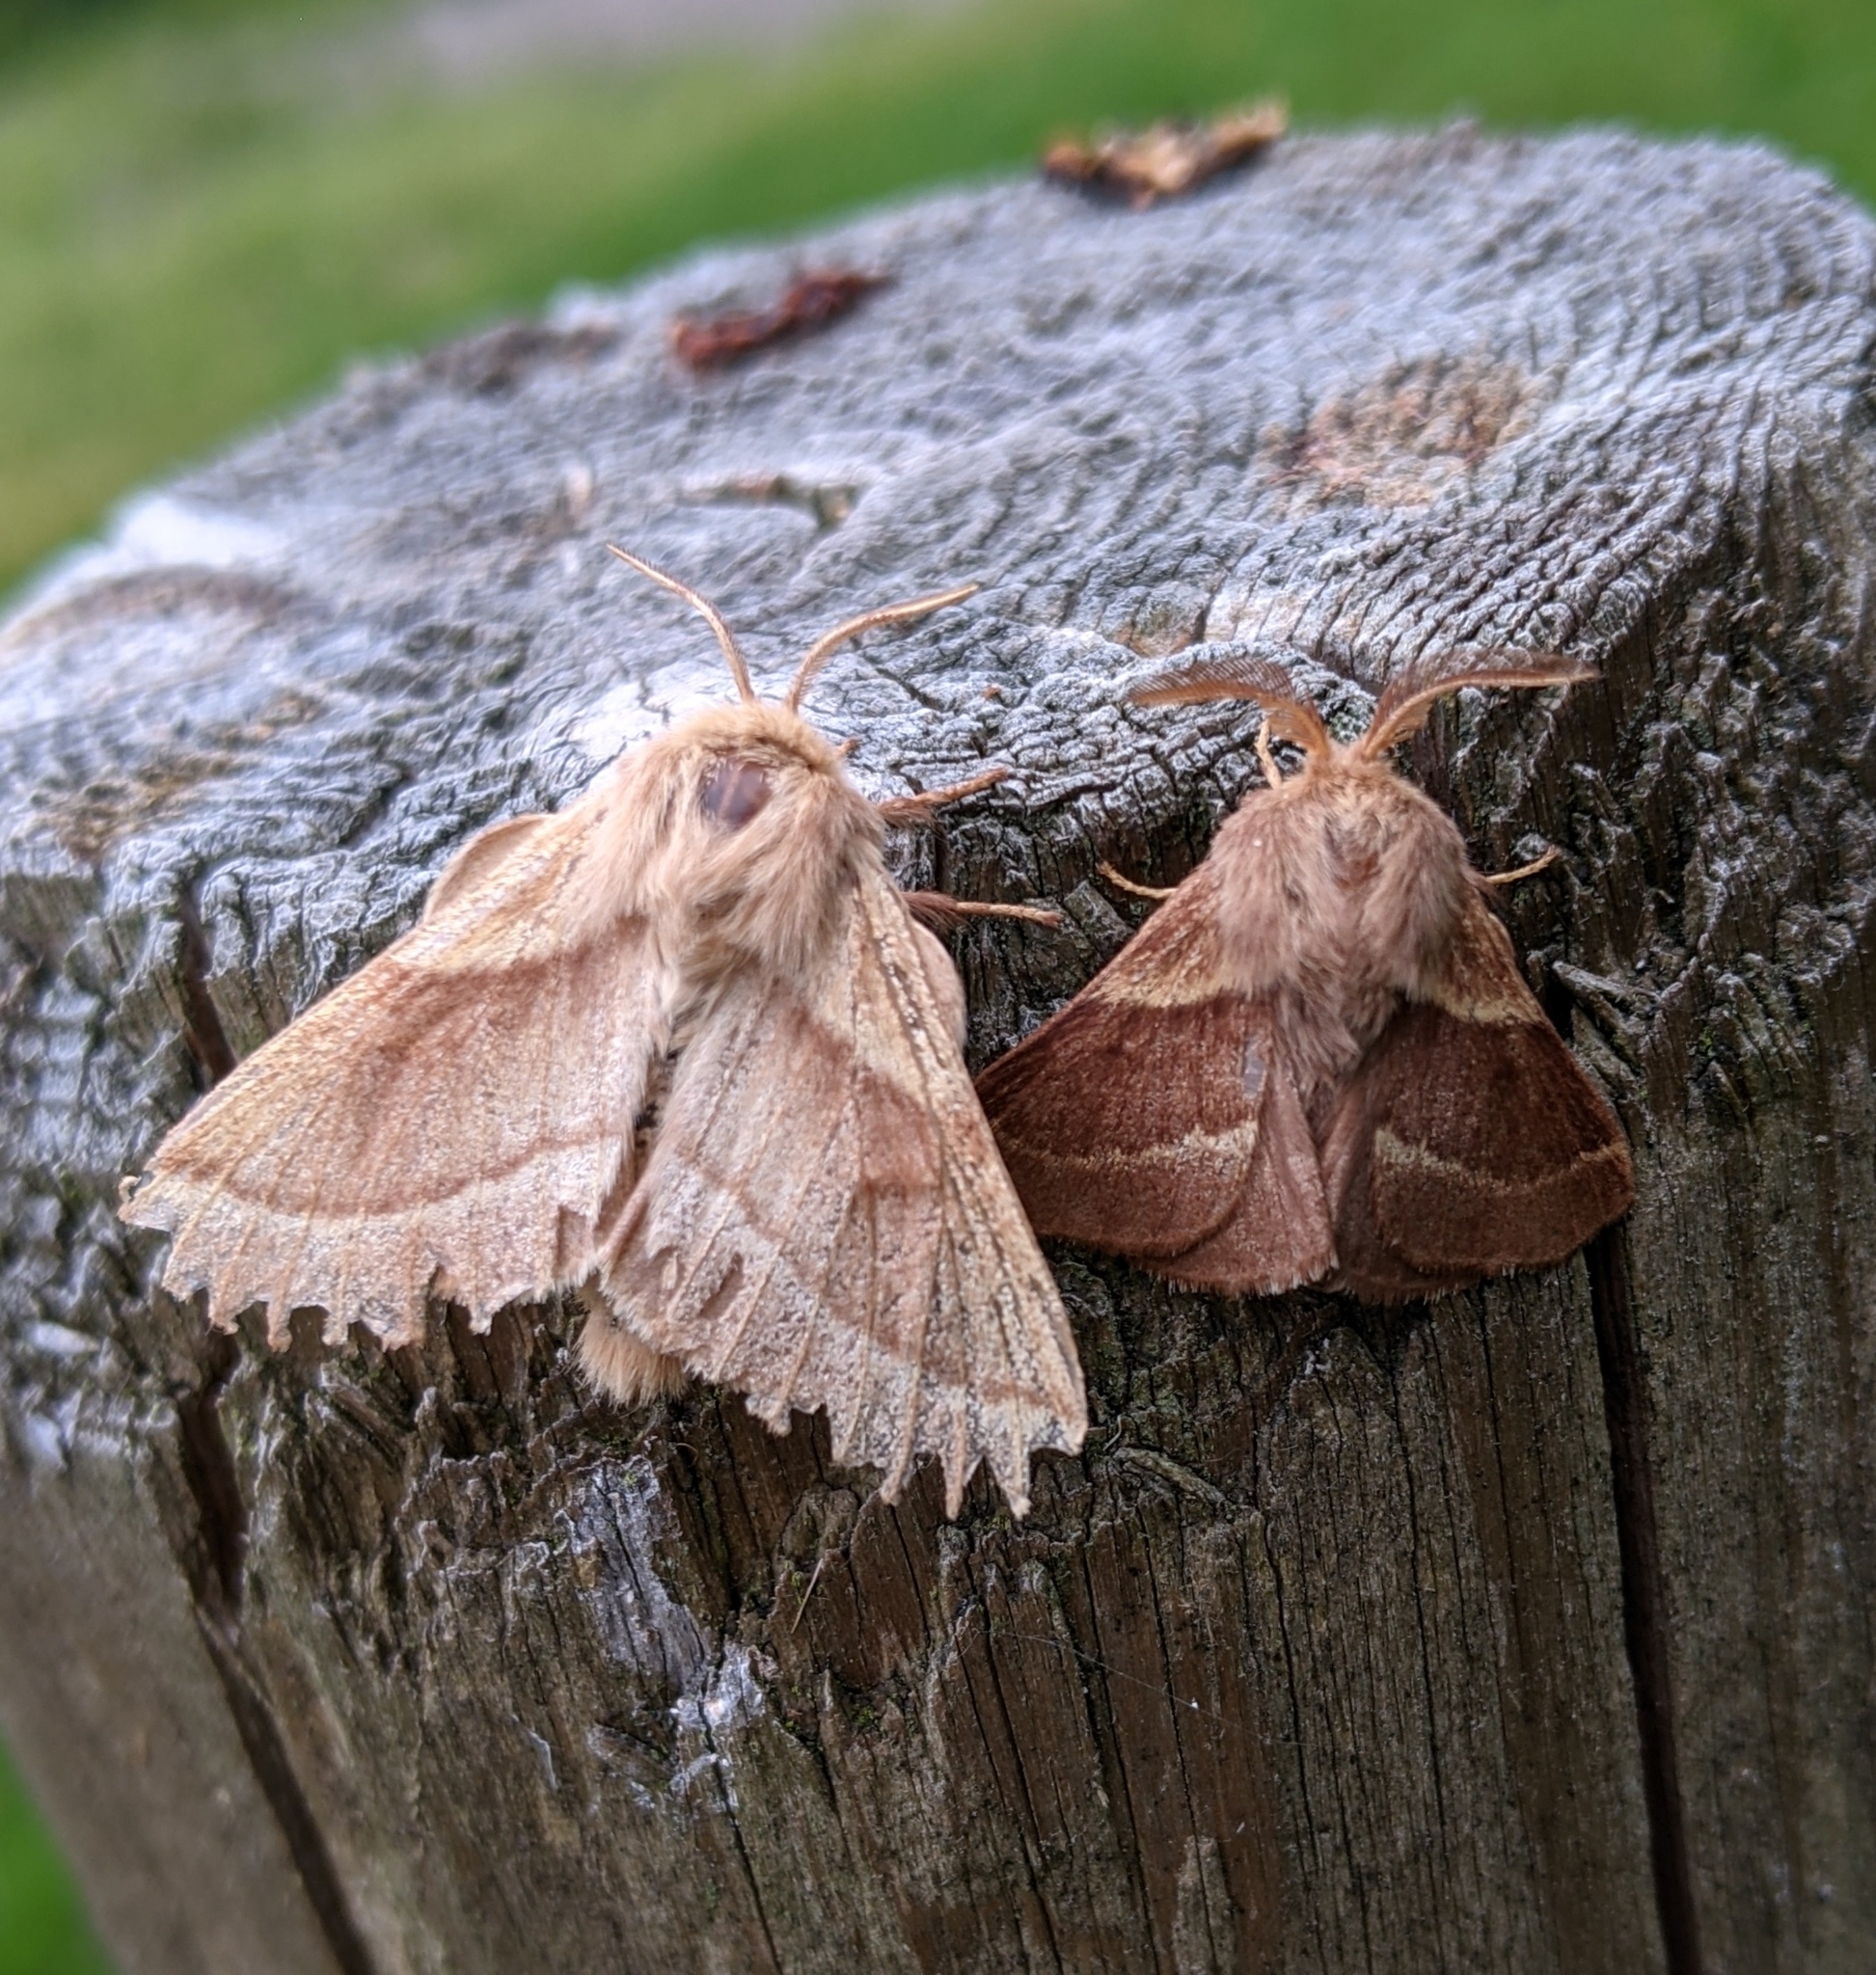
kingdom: Animalia
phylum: Arthropoda
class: Insecta
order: Lepidoptera
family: Lasiocampidae
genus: Malacosoma
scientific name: Malacosoma disstria
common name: Forest tent caterpillar
